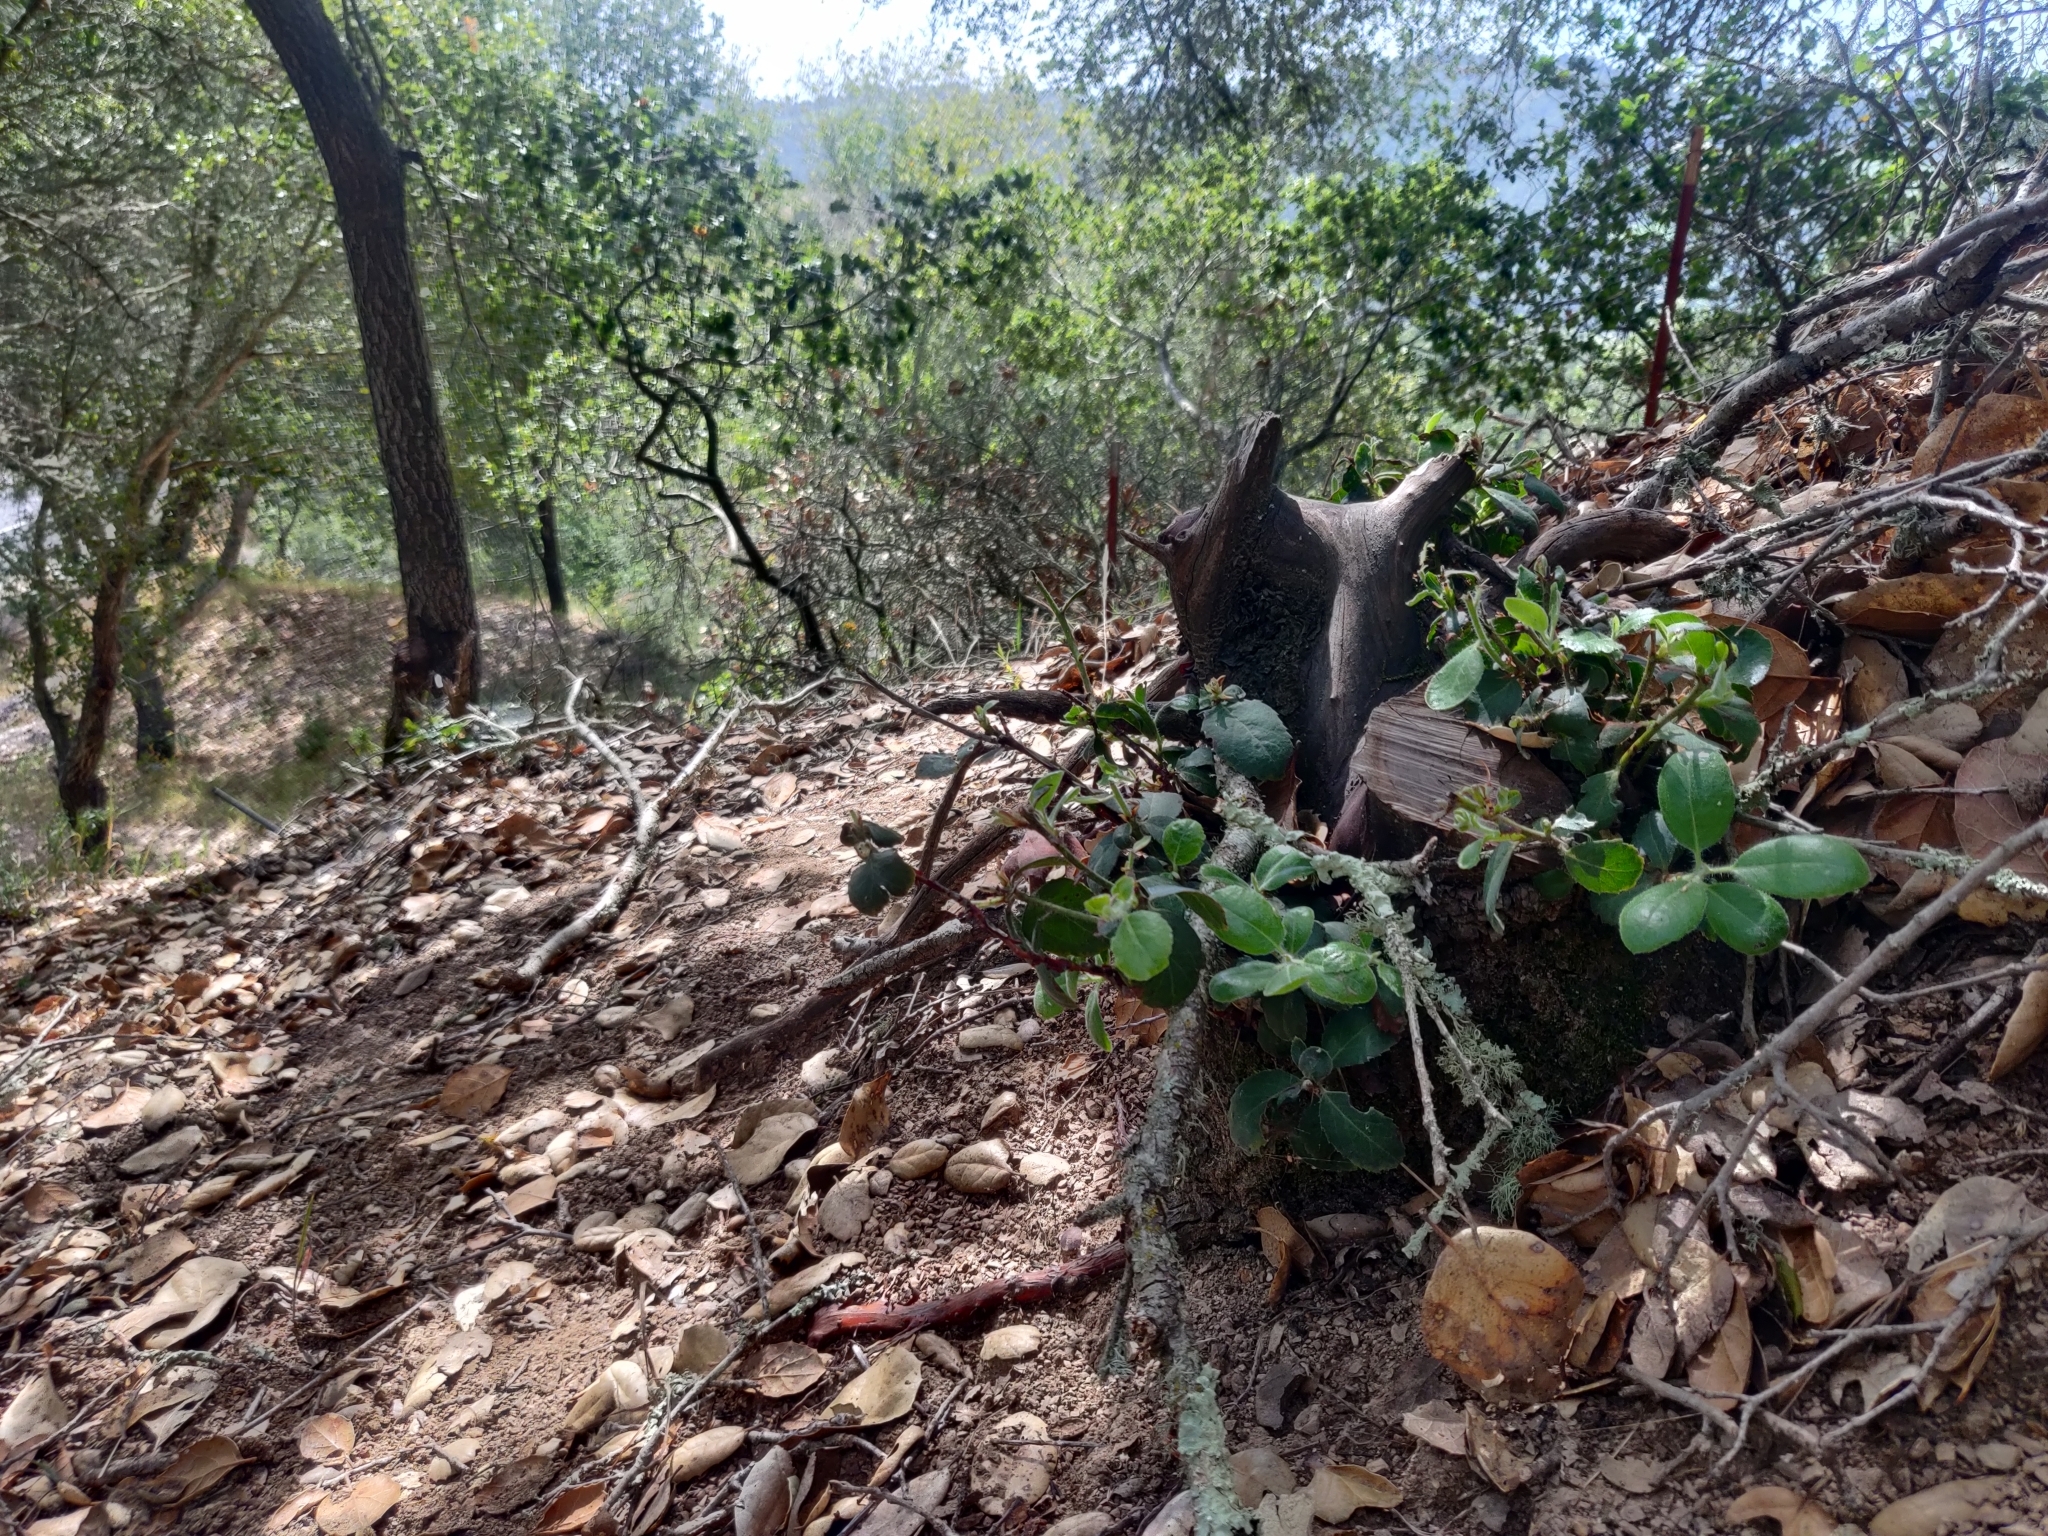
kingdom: Plantae
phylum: Tracheophyta
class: Magnoliopsida
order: Ericales
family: Ericaceae
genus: Arctostaphylos
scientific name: Arctostaphylos crustacea
